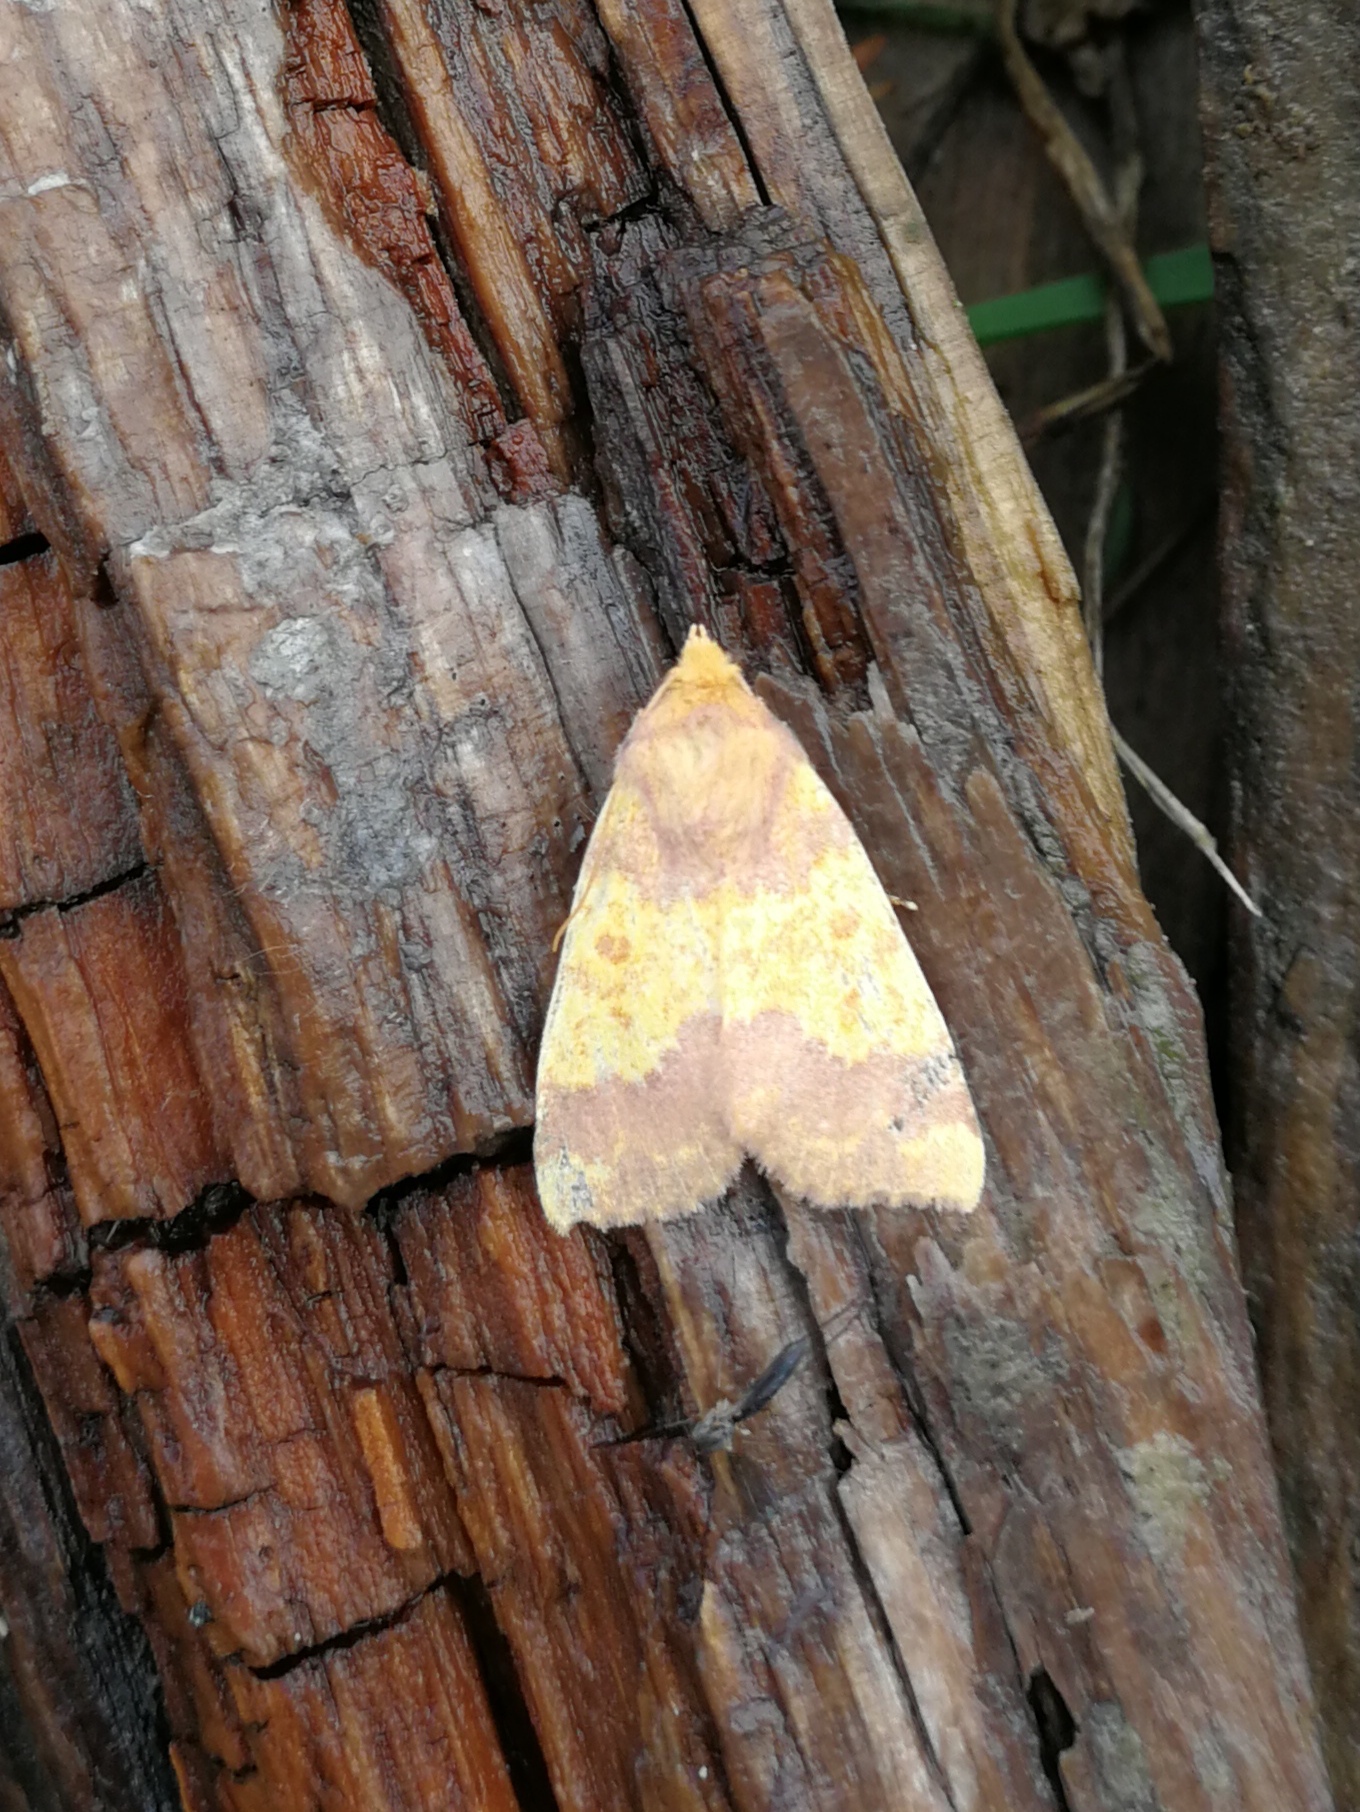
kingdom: Animalia
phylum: Arthropoda
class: Insecta
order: Lepidoptera
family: Noctuidae
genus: Tiliacea
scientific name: Tiliacea aurago
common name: Barred sallow
